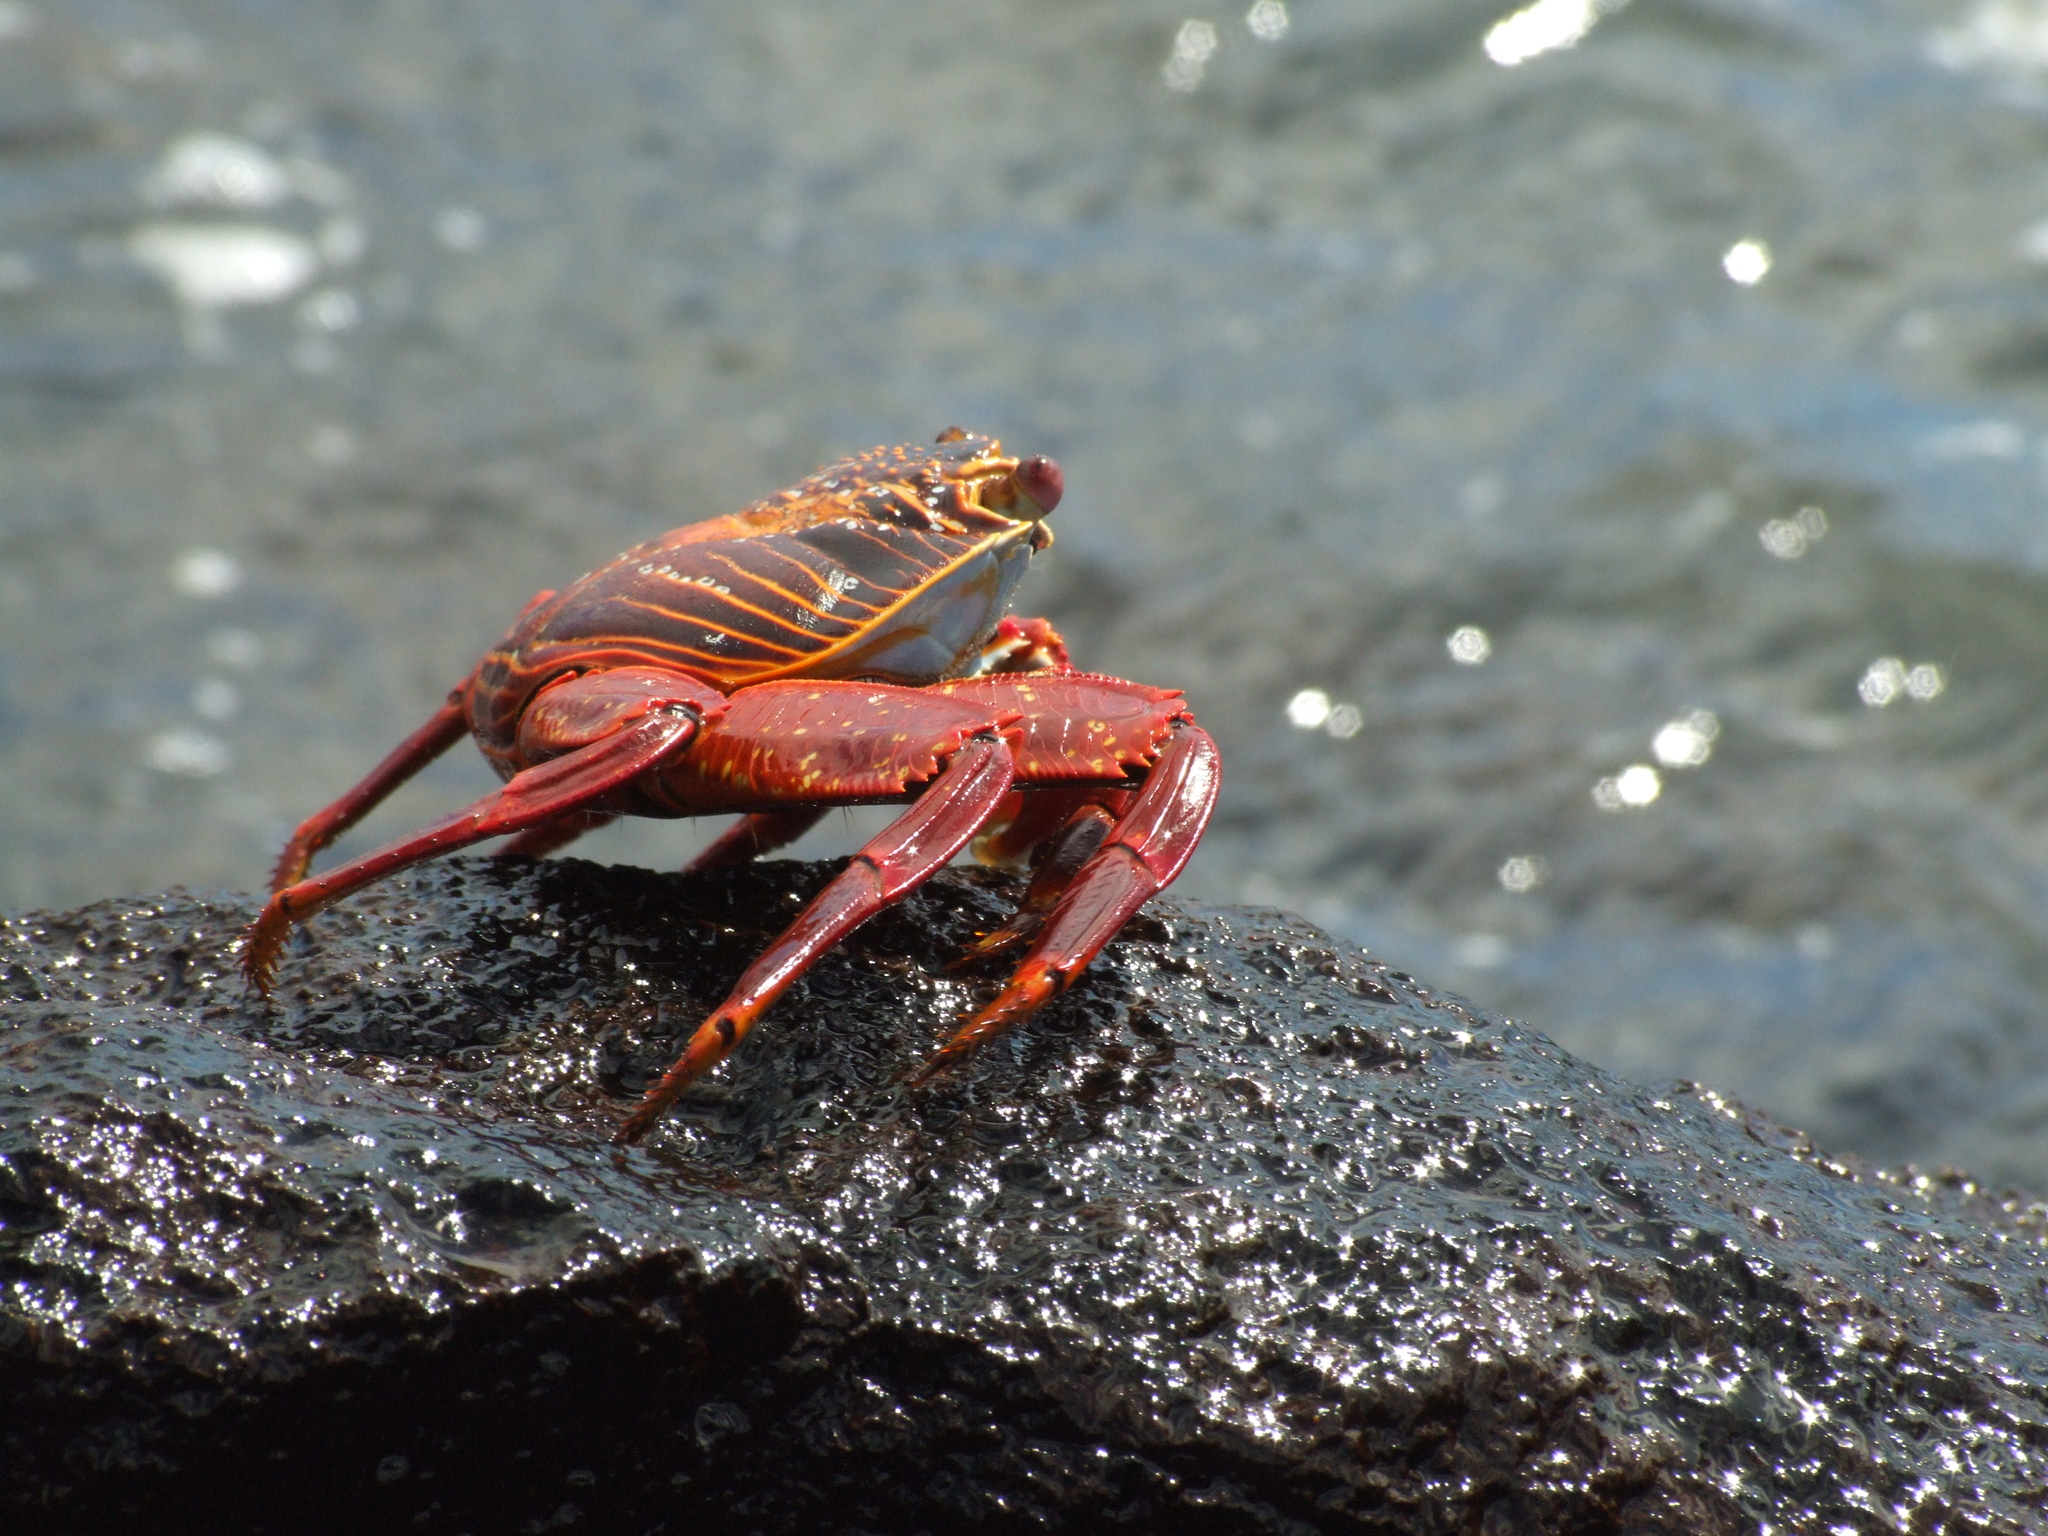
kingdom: Animalia
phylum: Arthropoda
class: Malacostraca
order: Decapoda
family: Grapsidae
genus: Grapsus
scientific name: Grapsus grapsus
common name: Sally lightfoot
